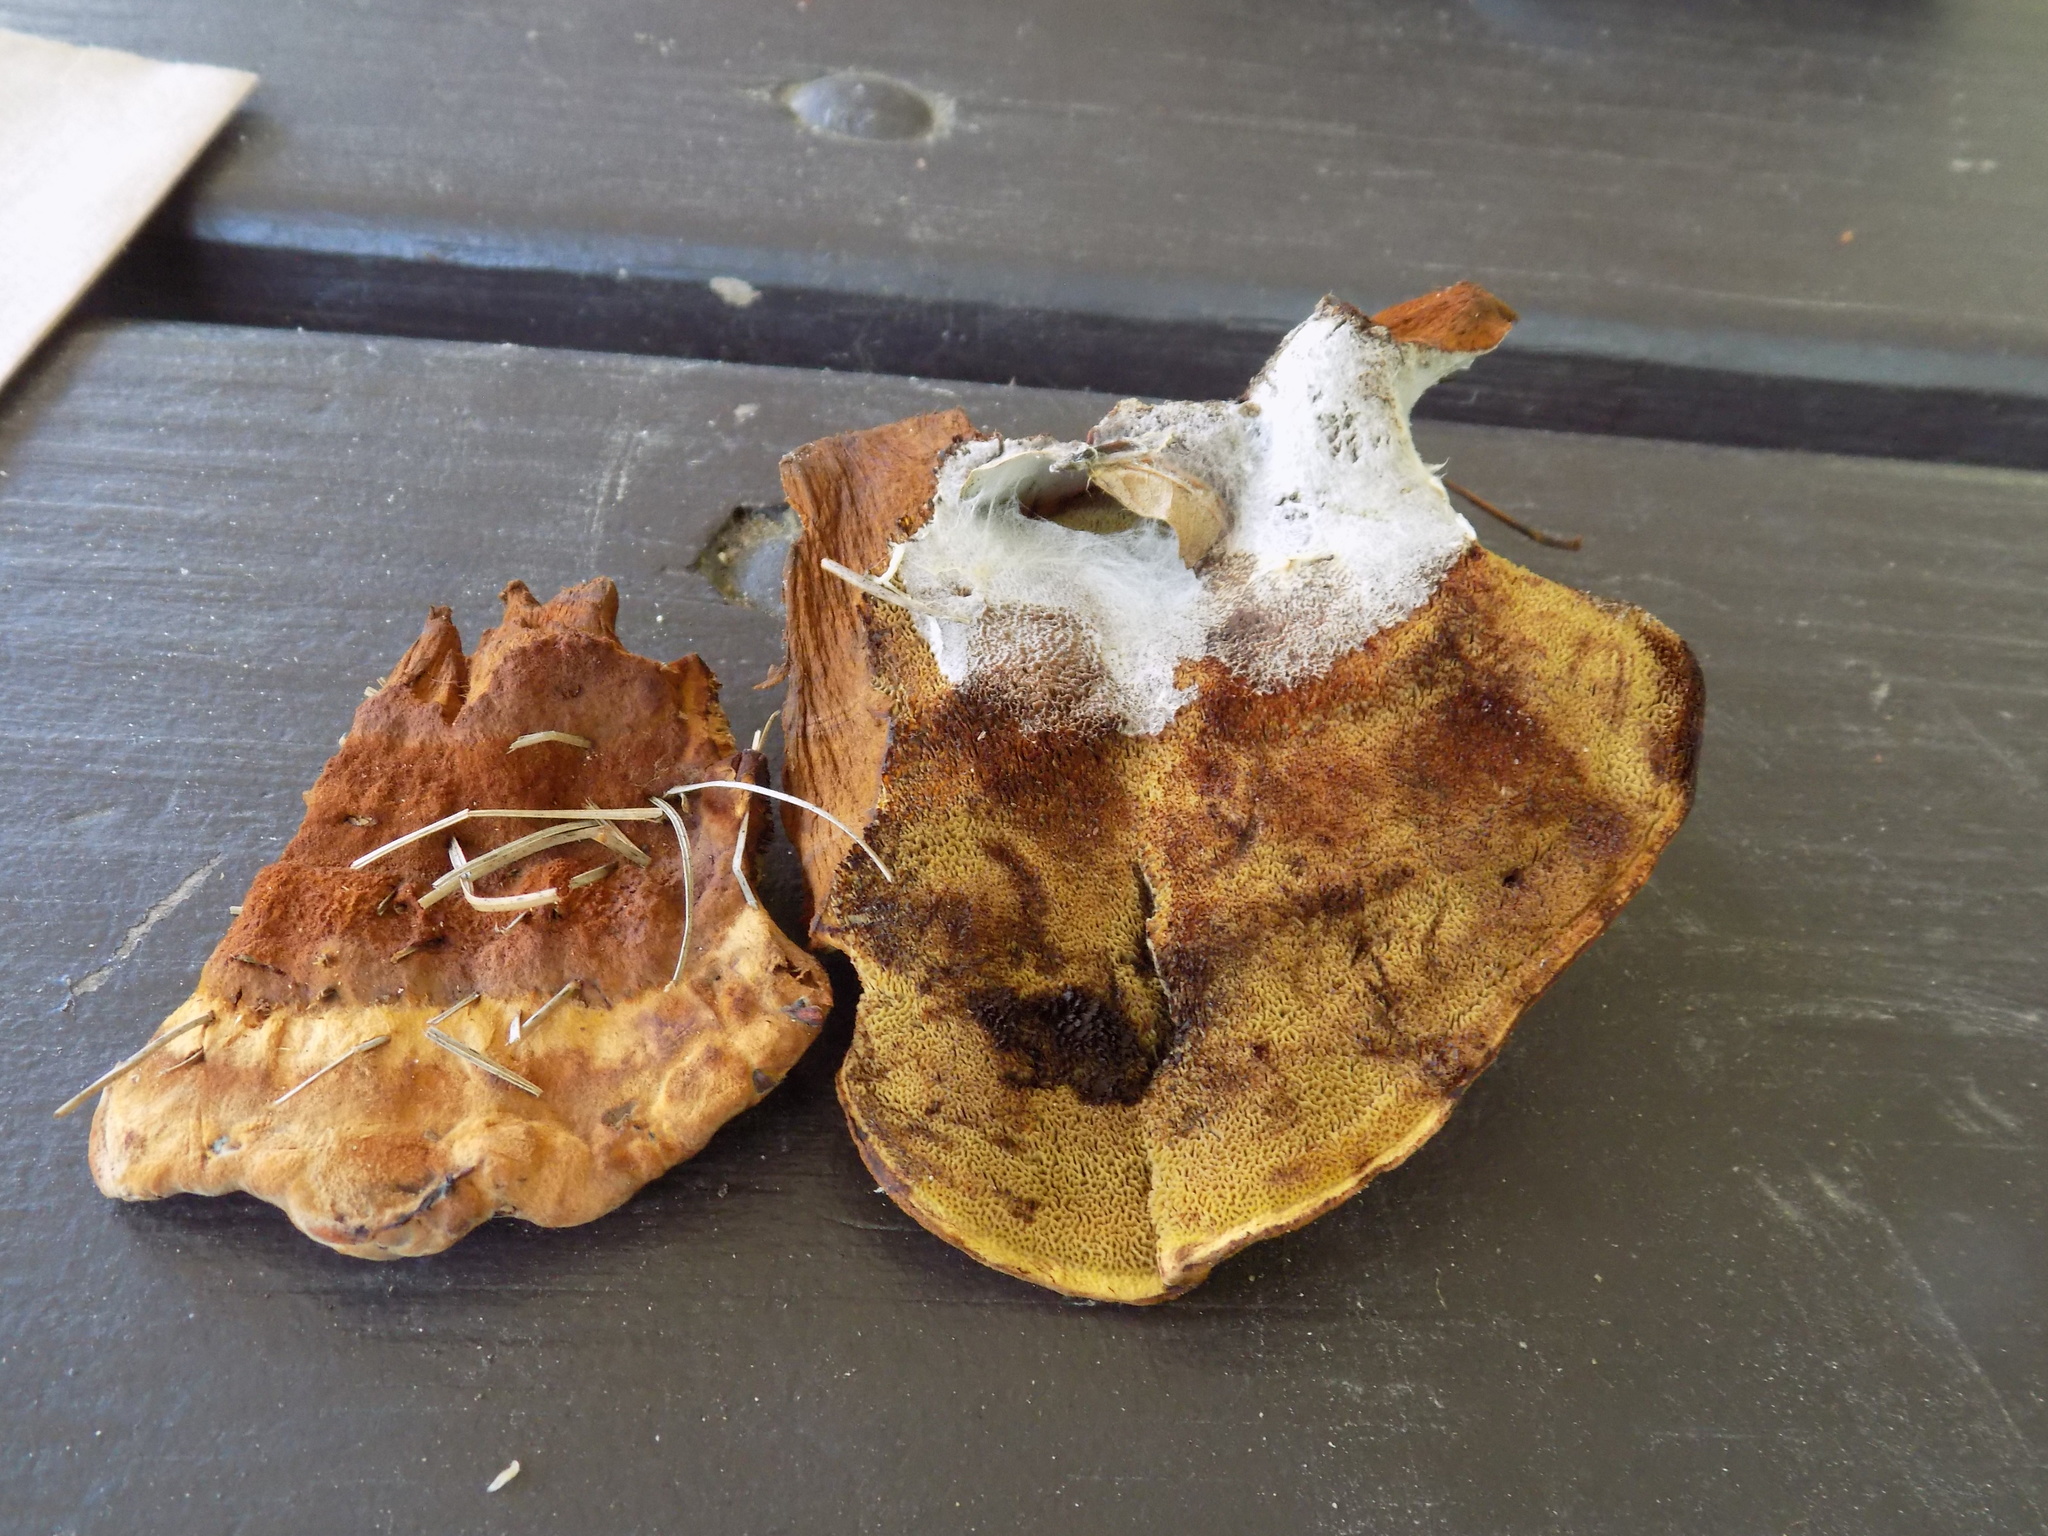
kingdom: Fungi
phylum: Basidiomycota
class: Agaricomycetes
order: Polyporales
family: Laetiporaceae
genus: Phaeolus
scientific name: Phaeolus schweinitzii
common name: Dyer's mazegill
